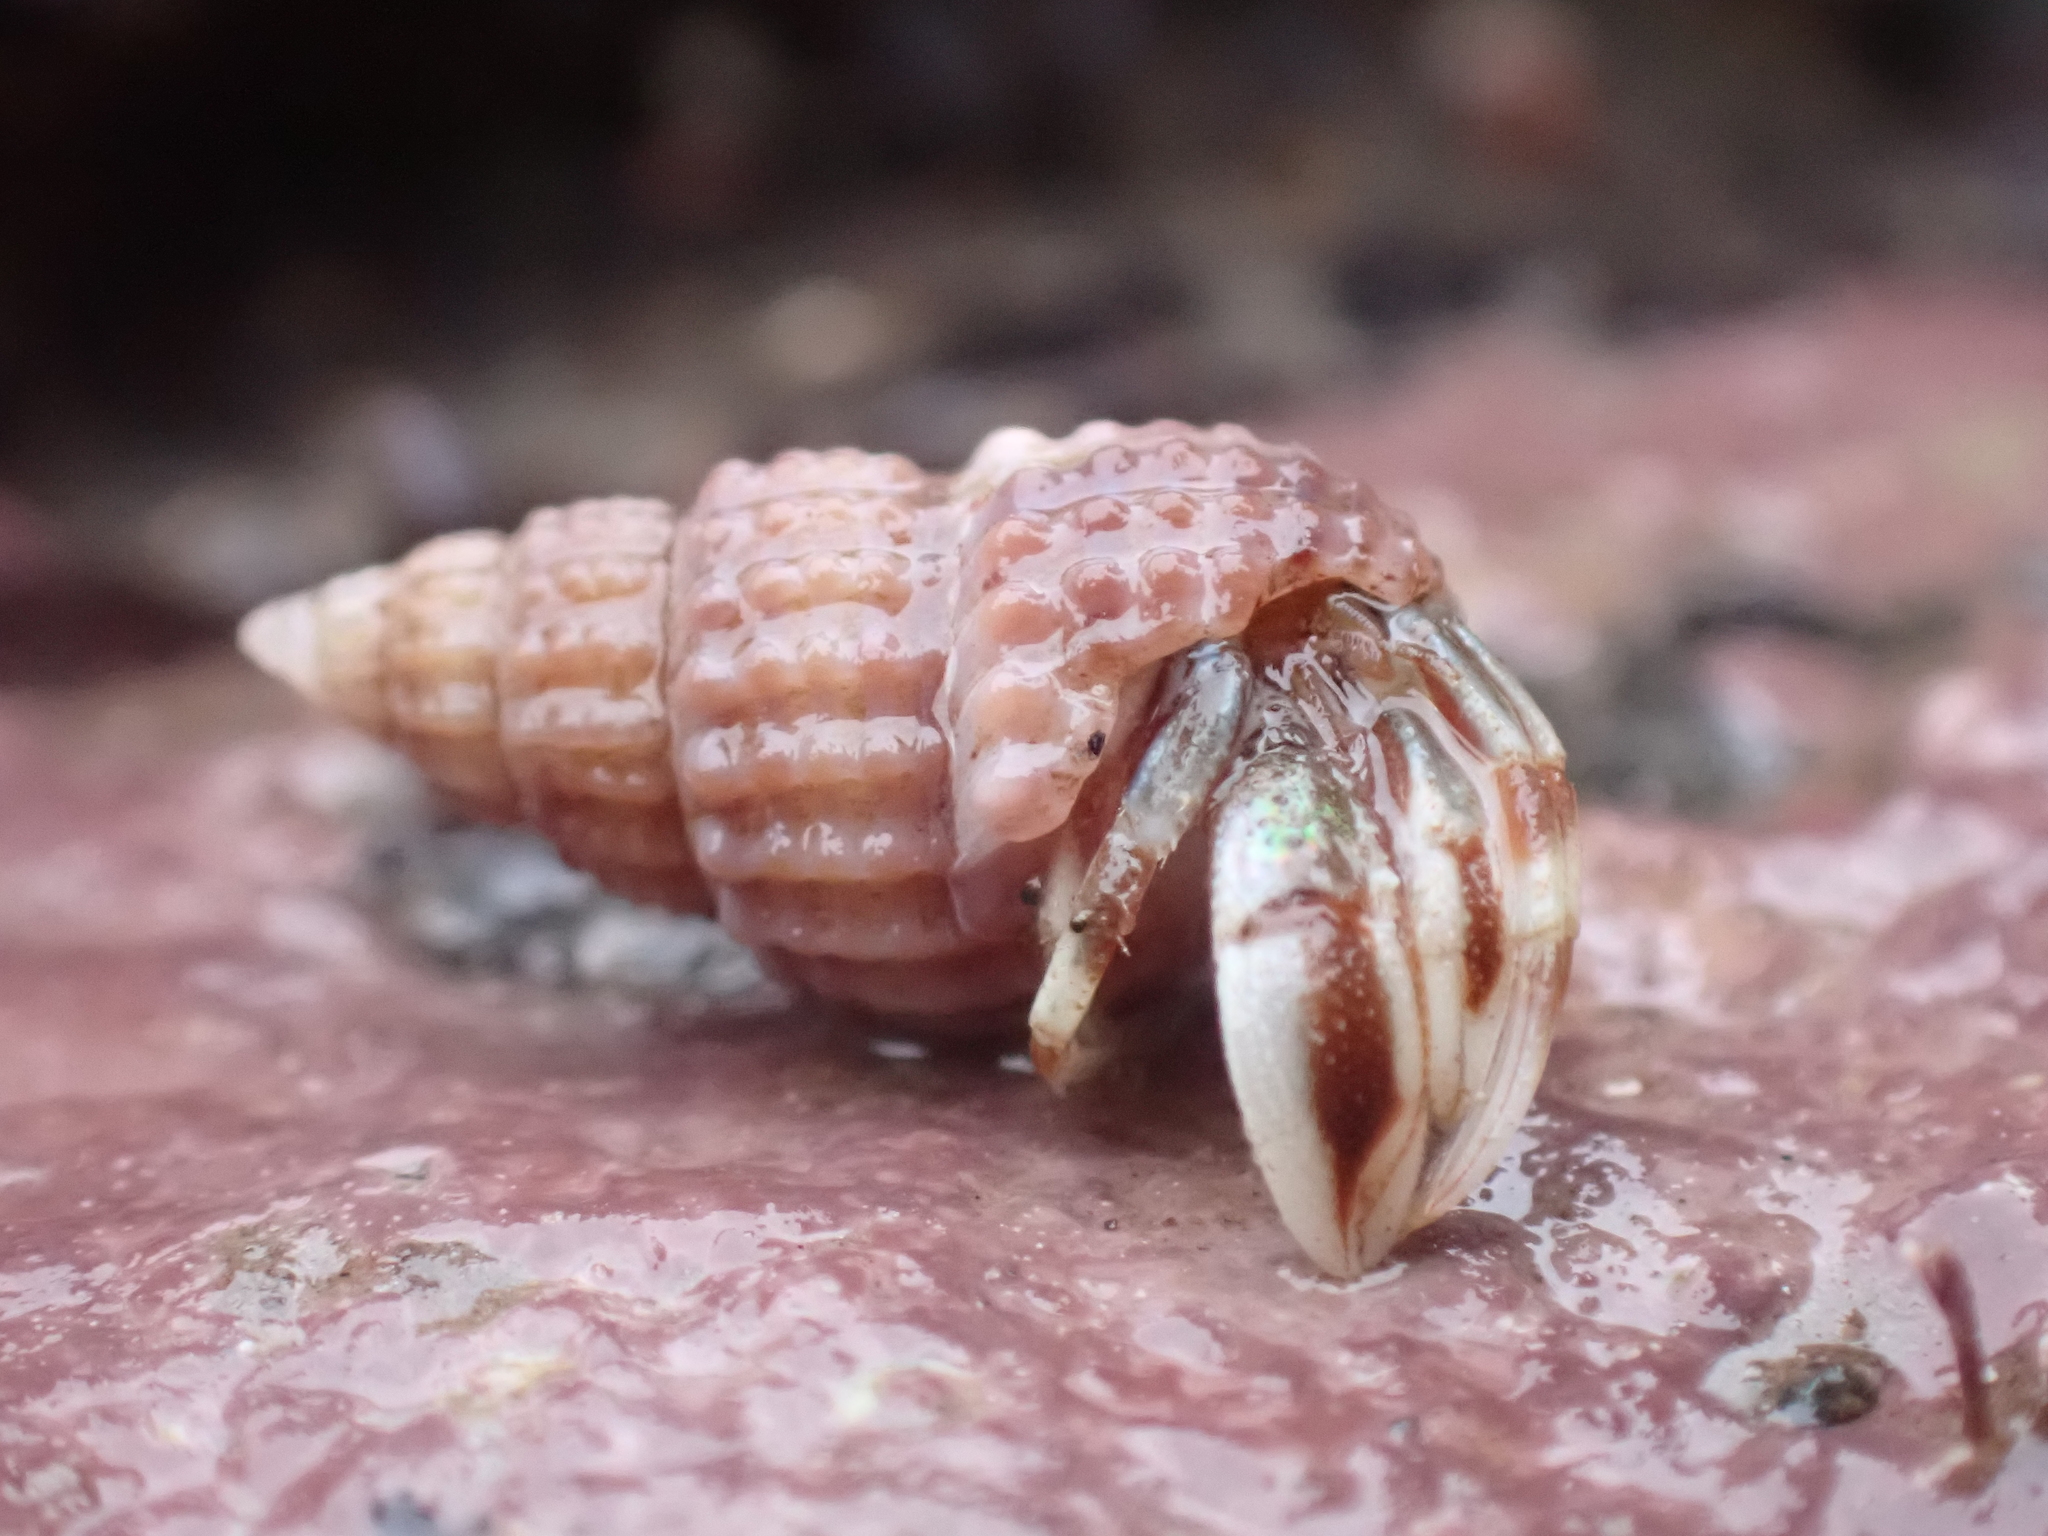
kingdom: Animalia
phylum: Arthropoda
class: Malacostraca
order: Decapoda
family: Paguridae
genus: Pagurus
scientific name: Pagurus acadianus
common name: Acadian hermit crab
